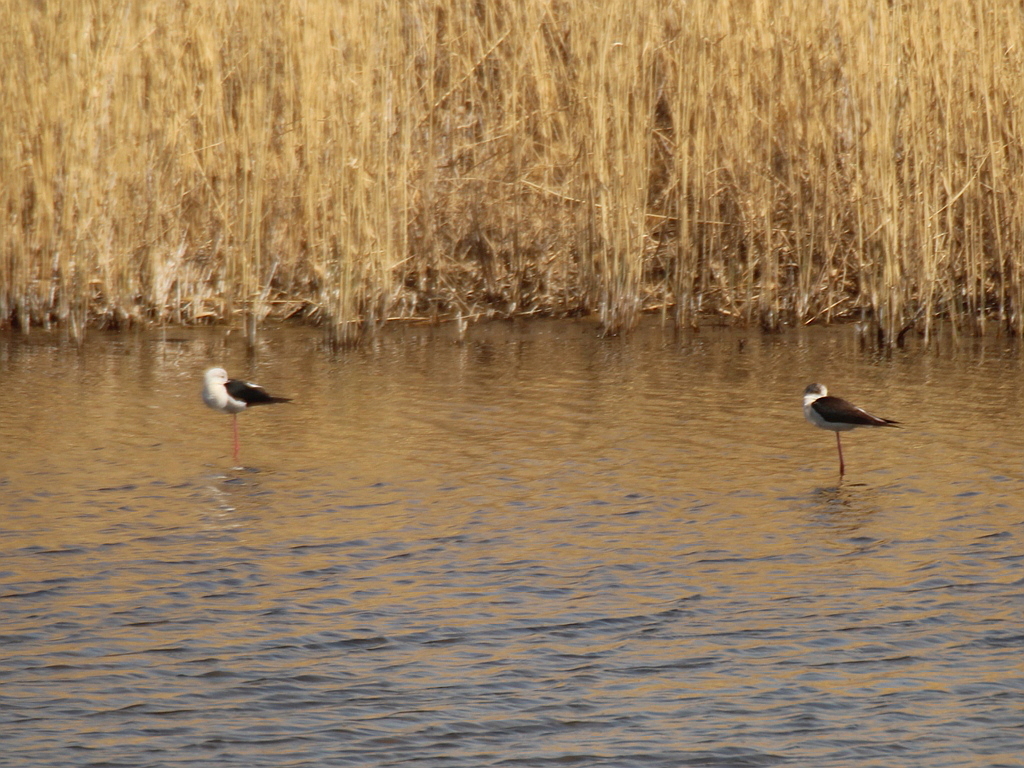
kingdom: Animalia
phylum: Chordata
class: Aves
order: Charadriiformes
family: Recurvirostridae
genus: Himantopus
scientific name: Himantopus himantopus
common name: Black-winged stilt
